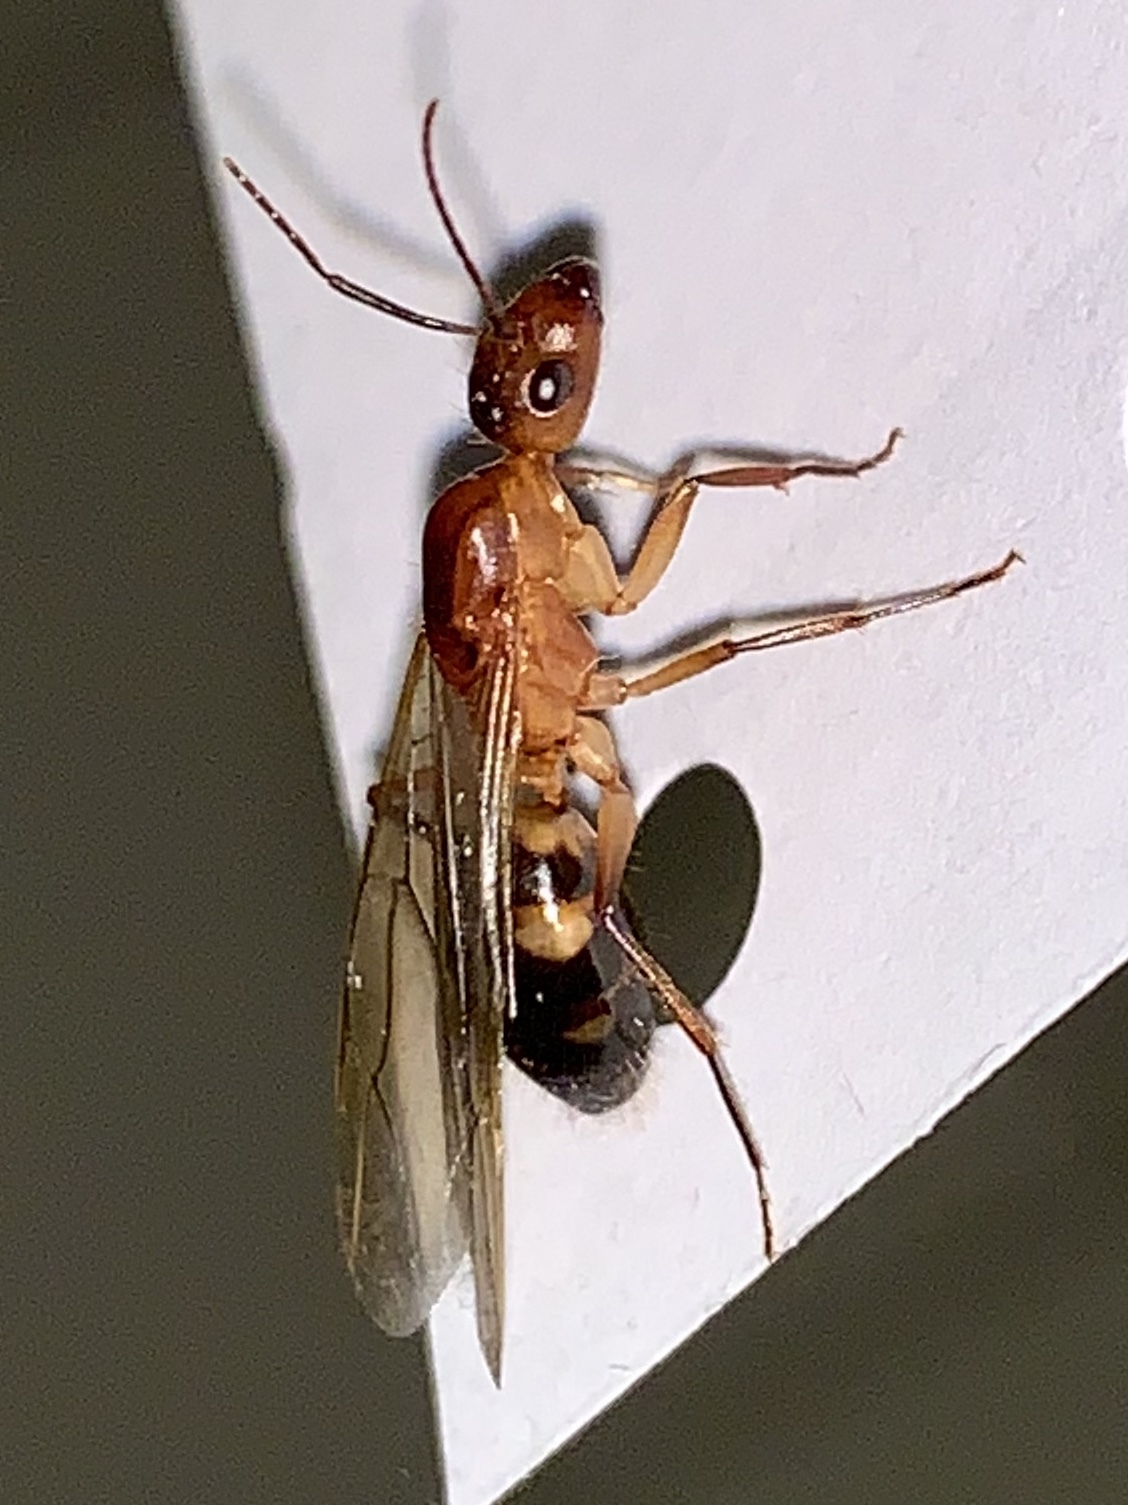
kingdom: Animalia
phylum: Arthropoda
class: Insecta
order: Hymenoptera
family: Formicidae
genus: Camponotus
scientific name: Camponotus inaequalis
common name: Ant
